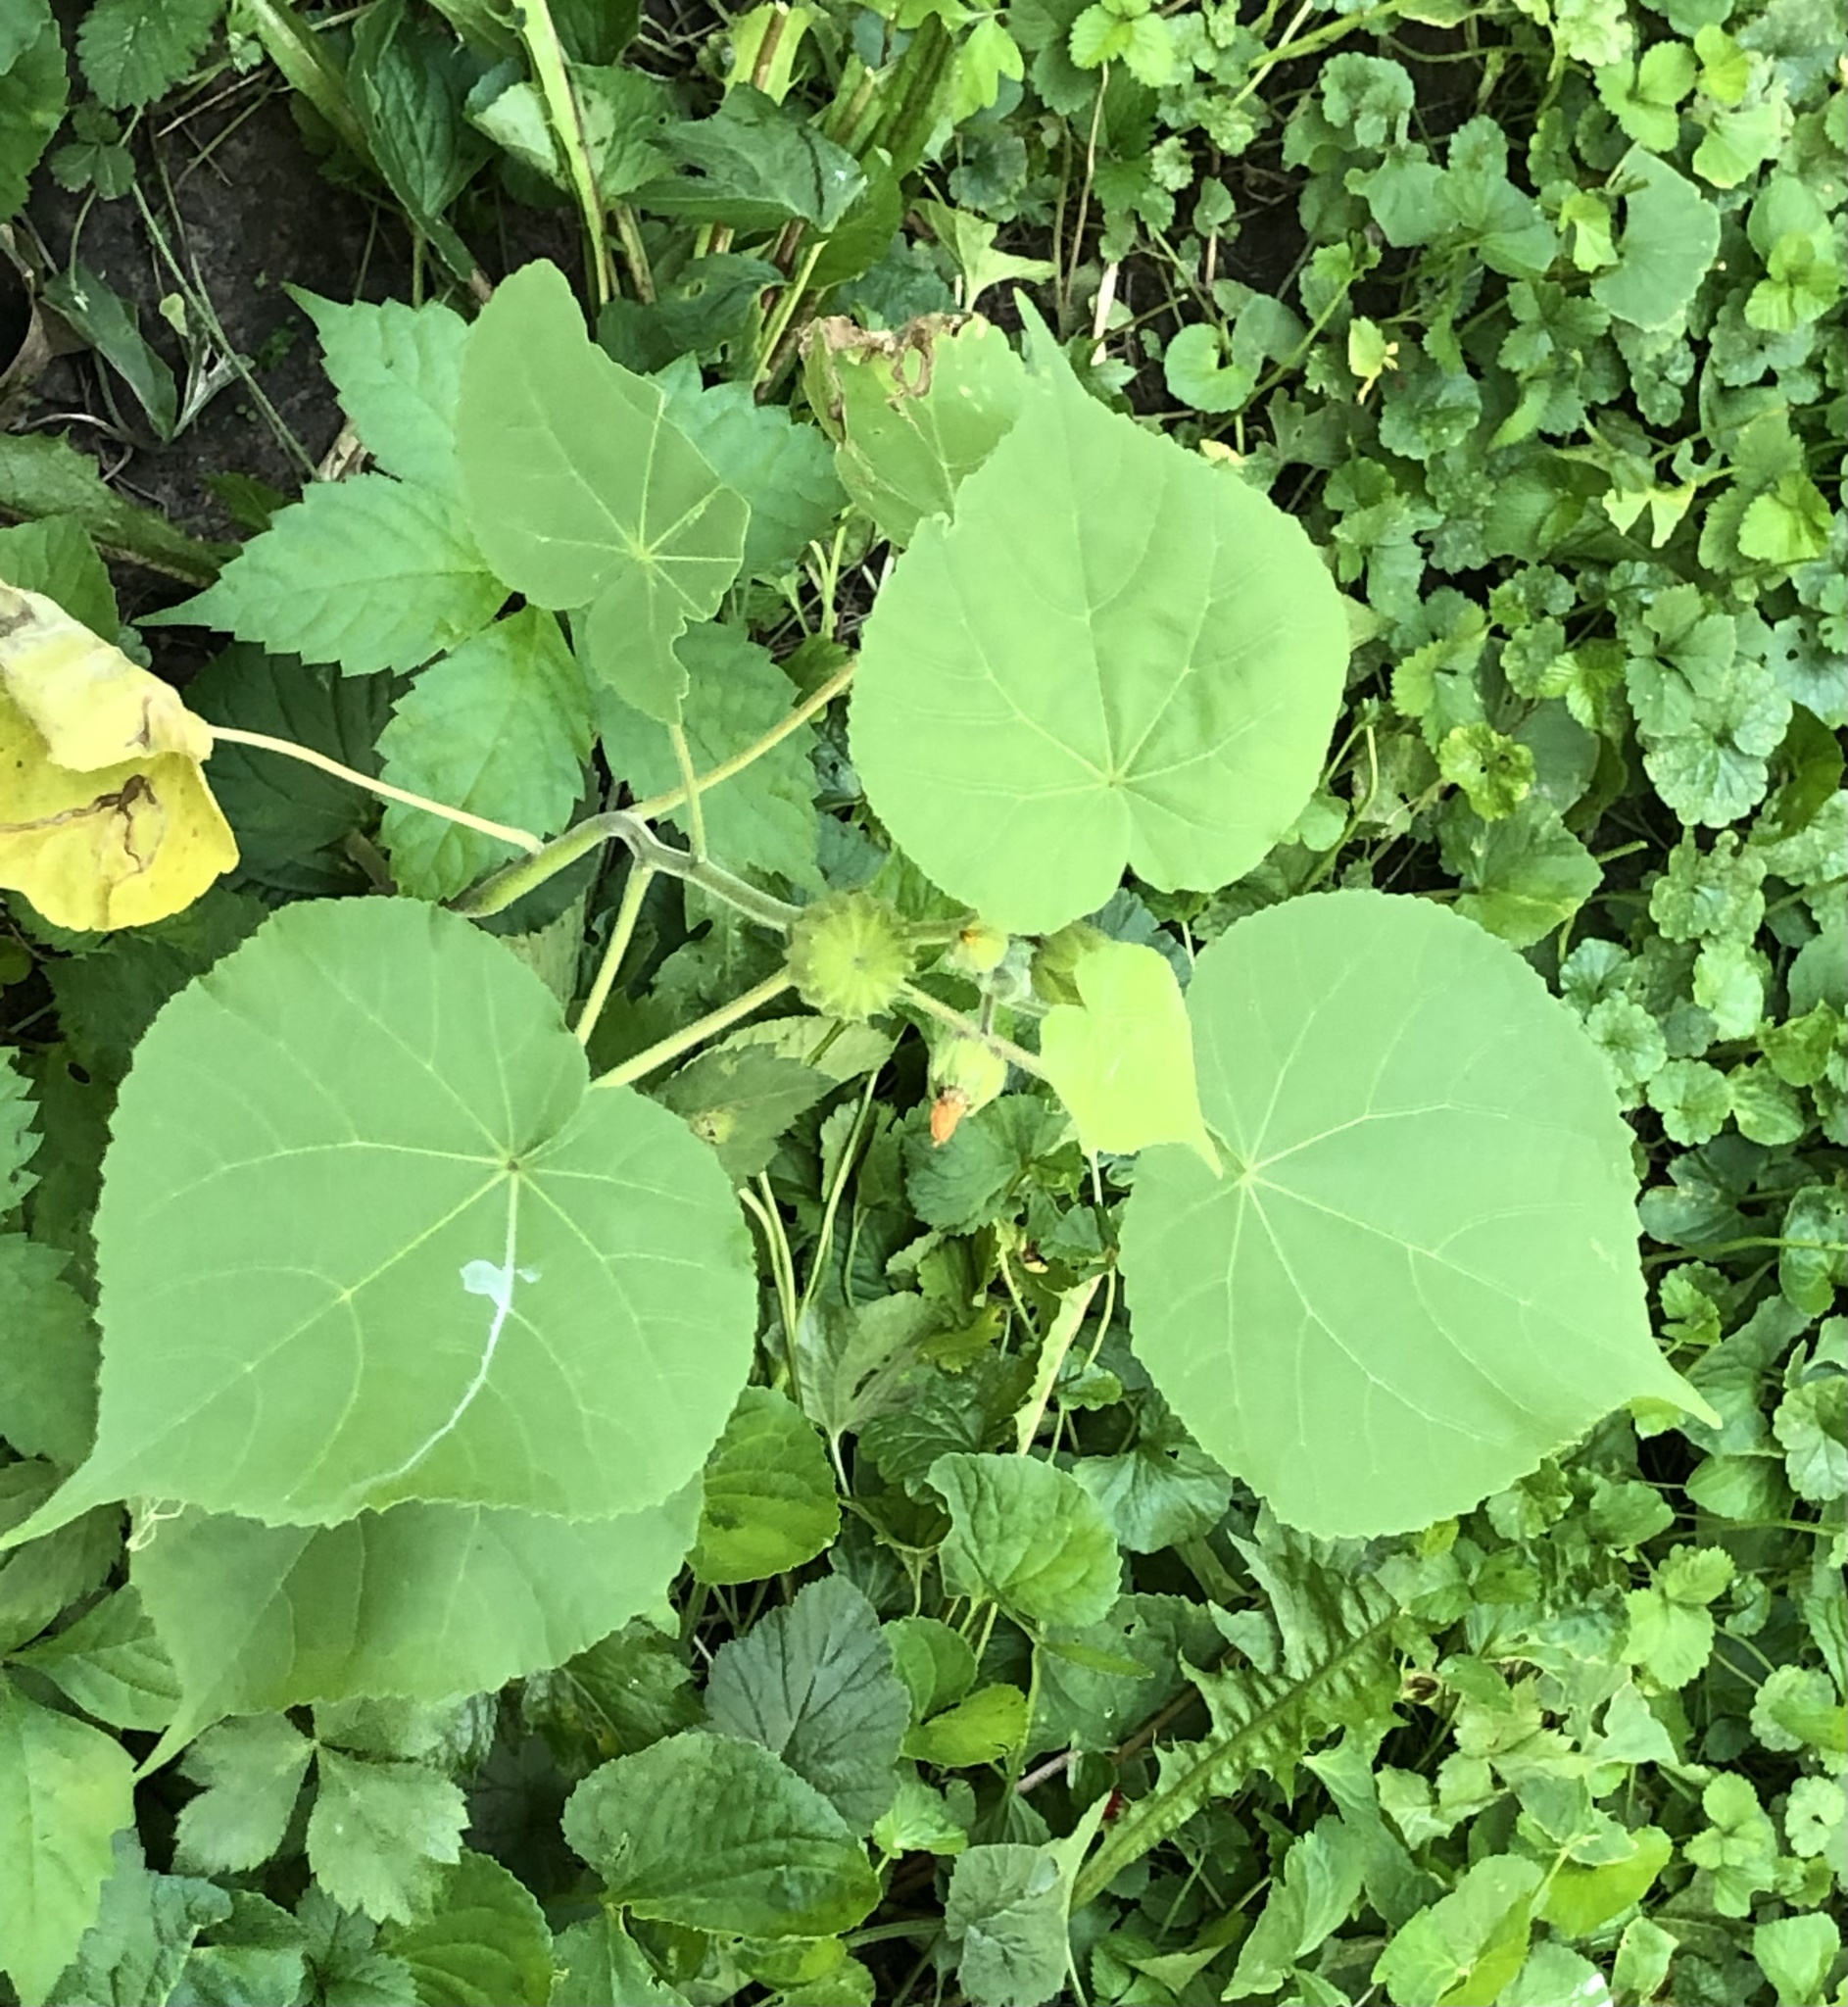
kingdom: Plantae
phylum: Tracheophyta
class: Magnoliopsida
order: Malvales
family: Malvaceae
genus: Abutilon
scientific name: Abutilon theophrasti
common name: Velvetleaf
